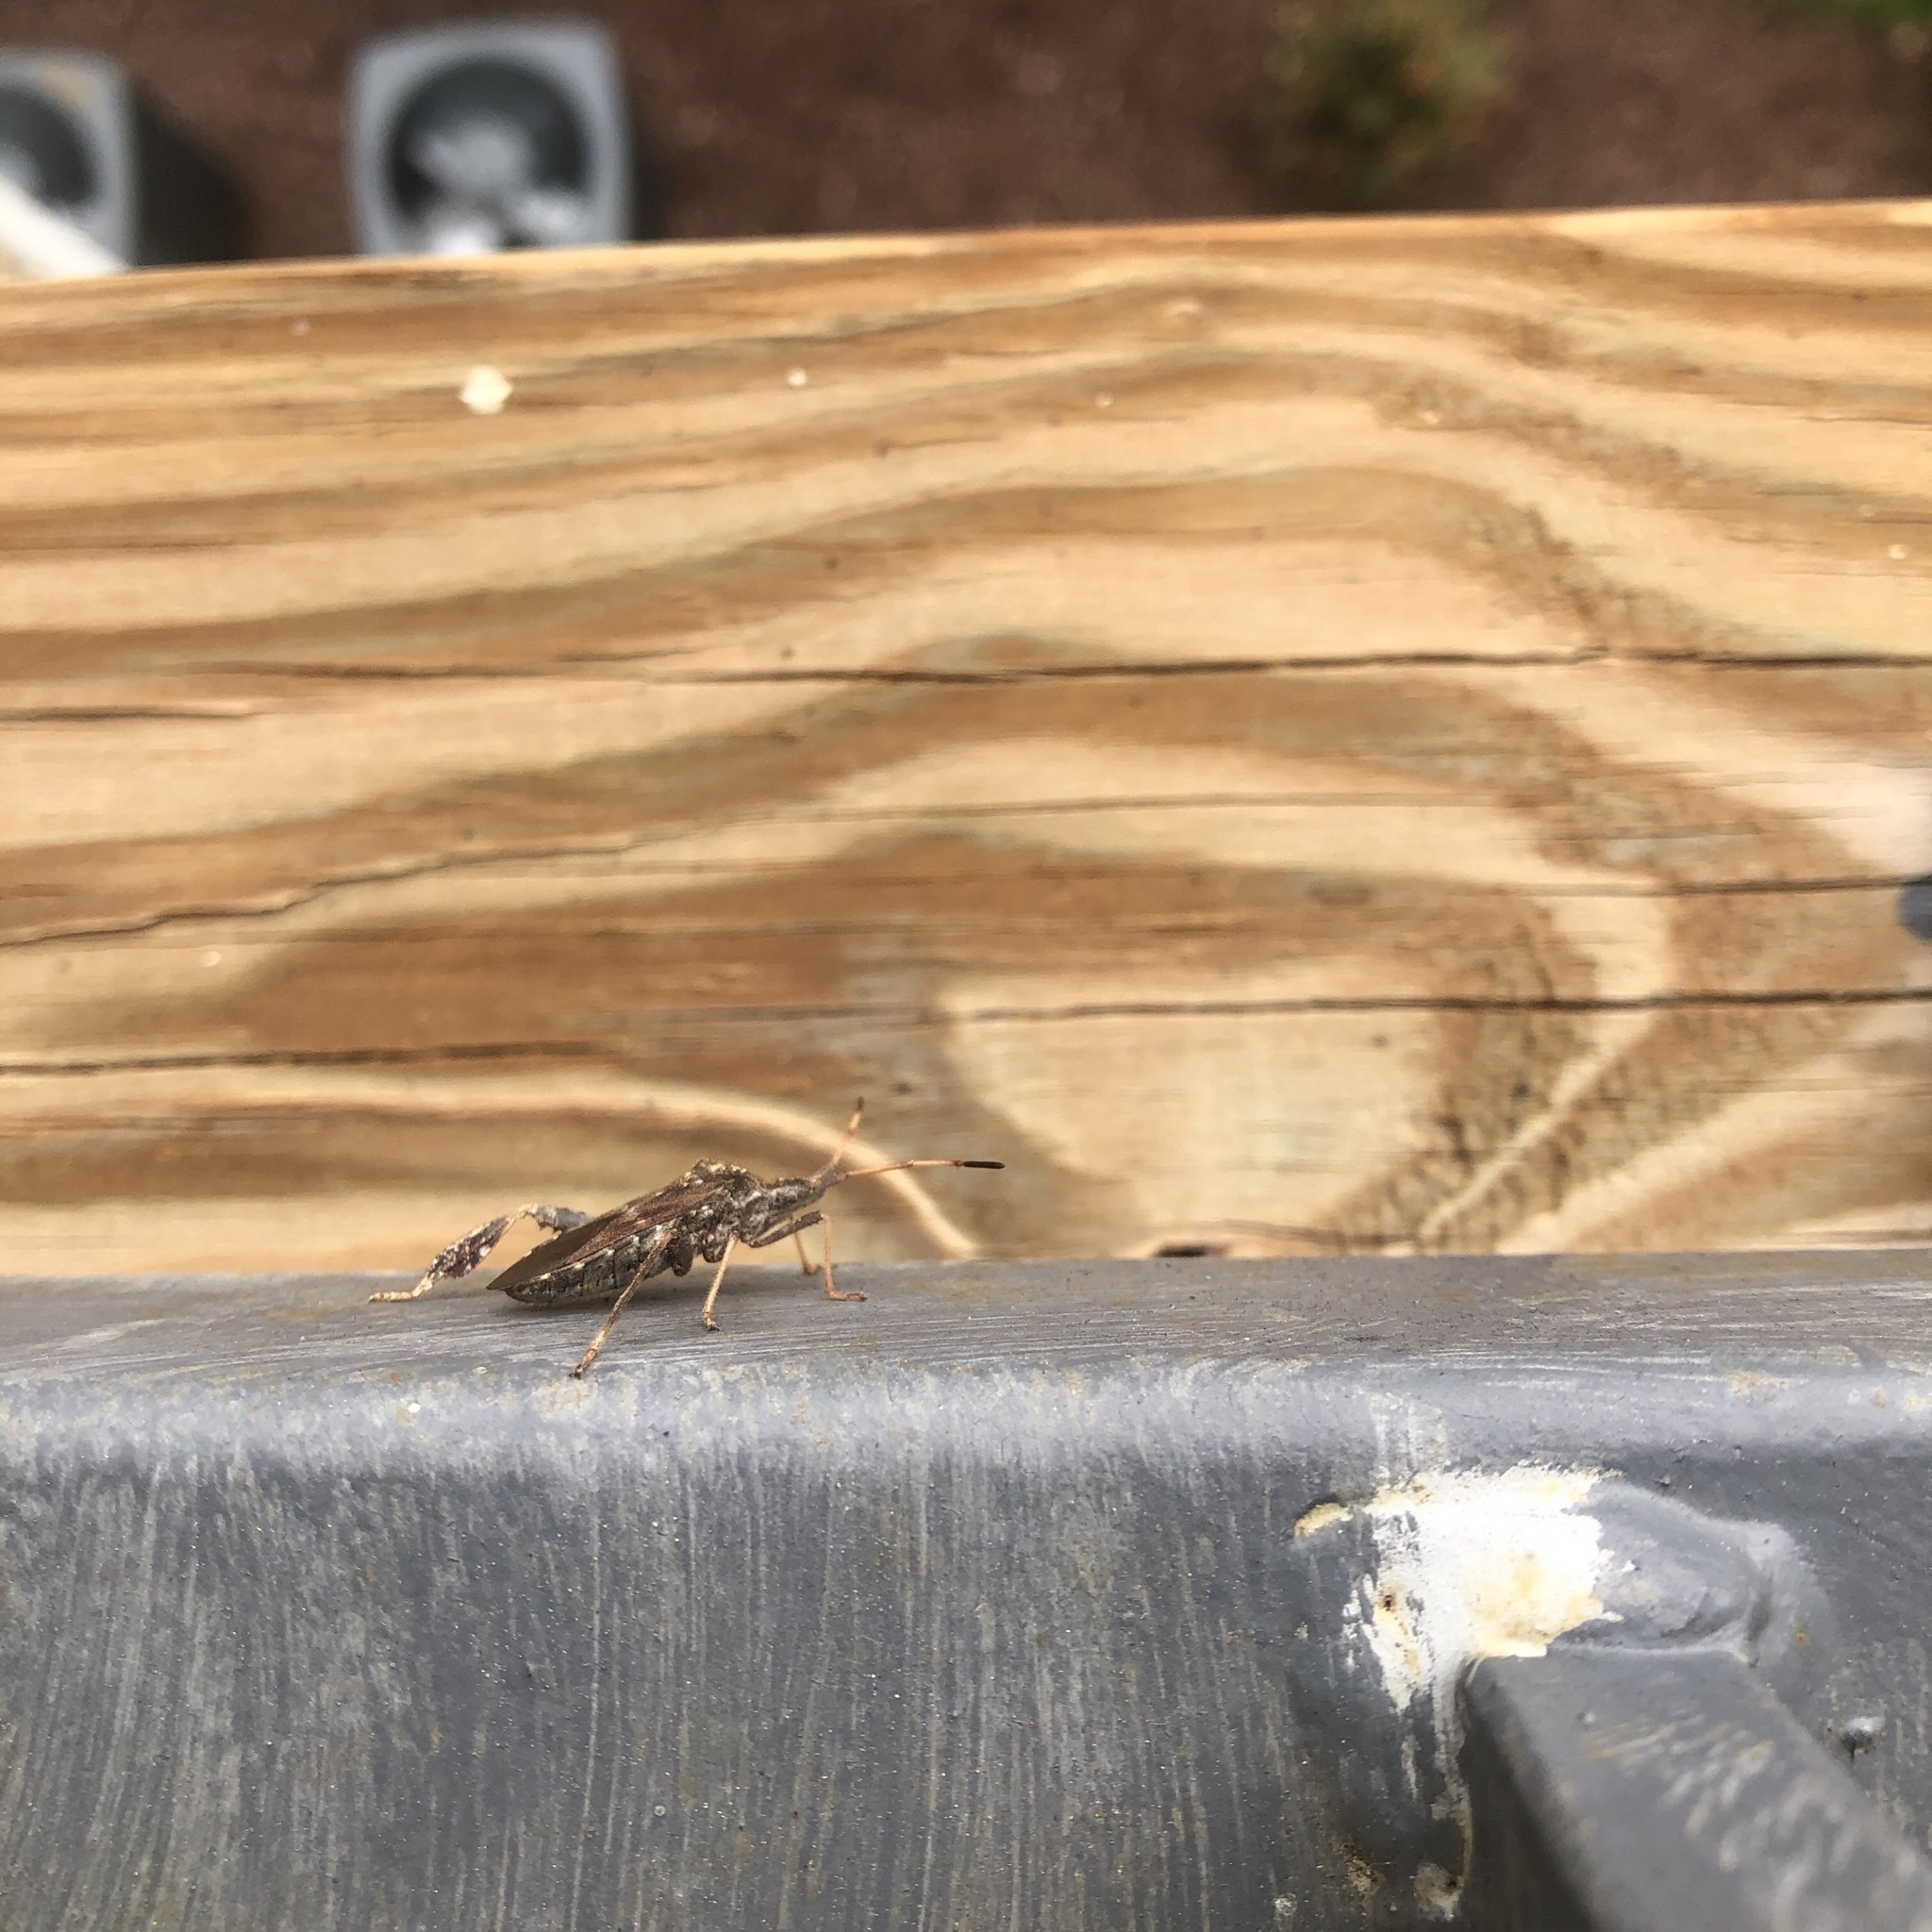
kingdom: Animalia
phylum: Arthropoda
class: Insecta
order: Hemiptera
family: Coreidae
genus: Leptoglossus
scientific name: Leptoglossus corculus
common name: Southern pine seed bug
